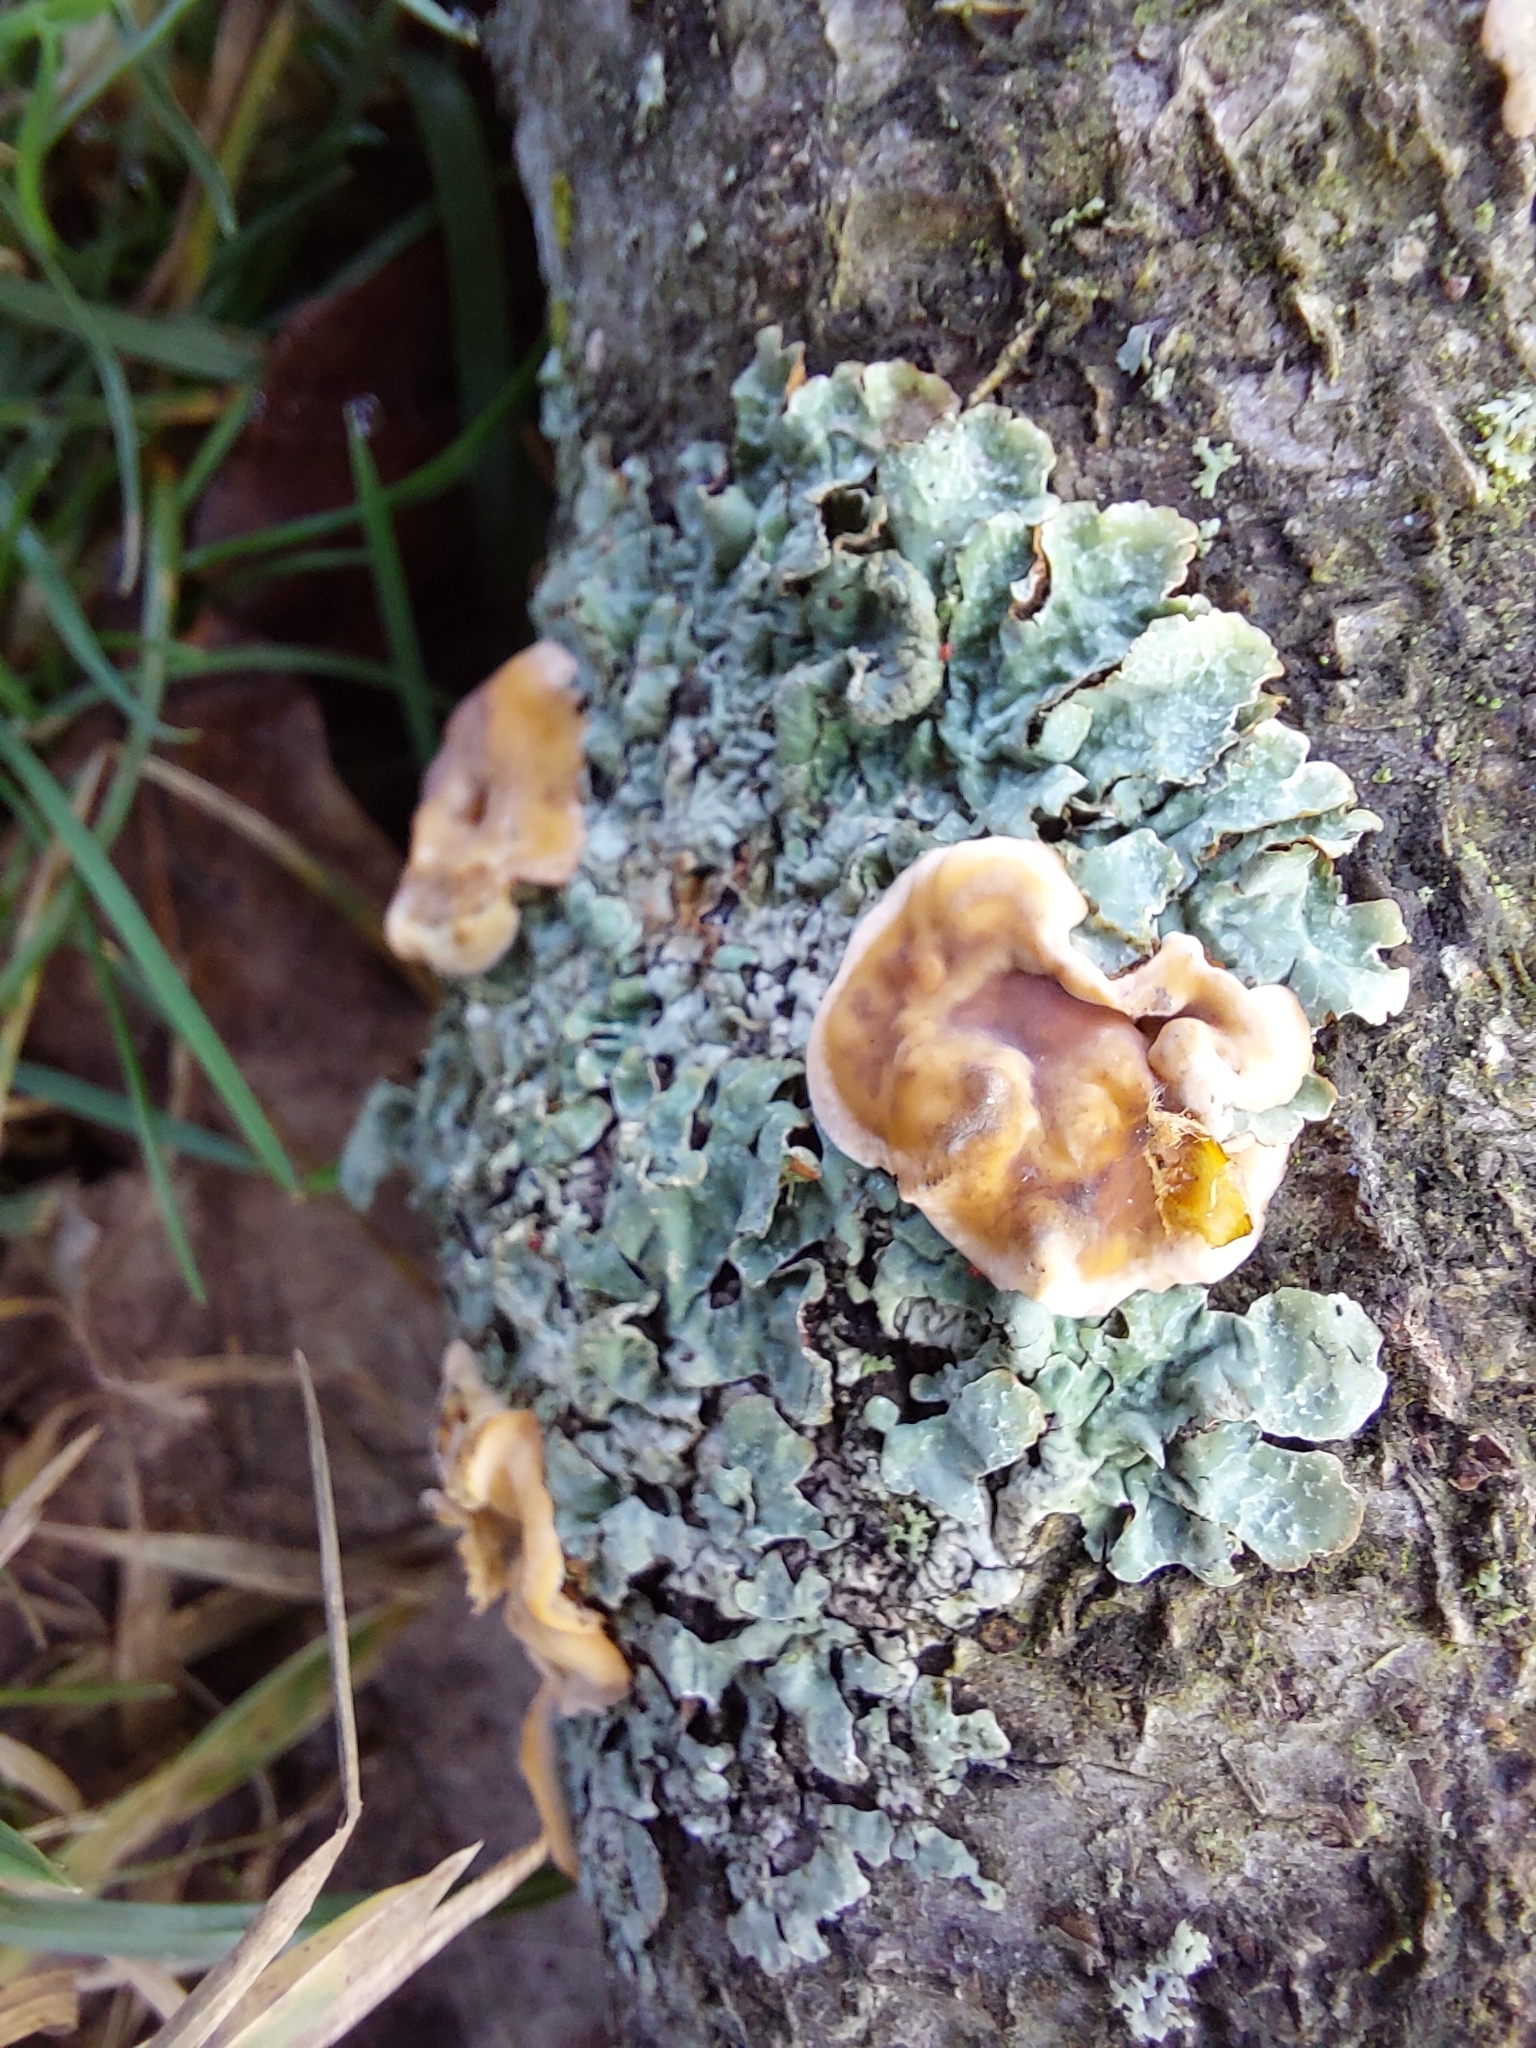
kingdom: Fungi
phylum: Ascomycota
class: Lecanoromycetes
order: Lecanorales
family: Parmeliaceae
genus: Parmelia
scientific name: Parmelia sulcata
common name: Netted shield lichen
